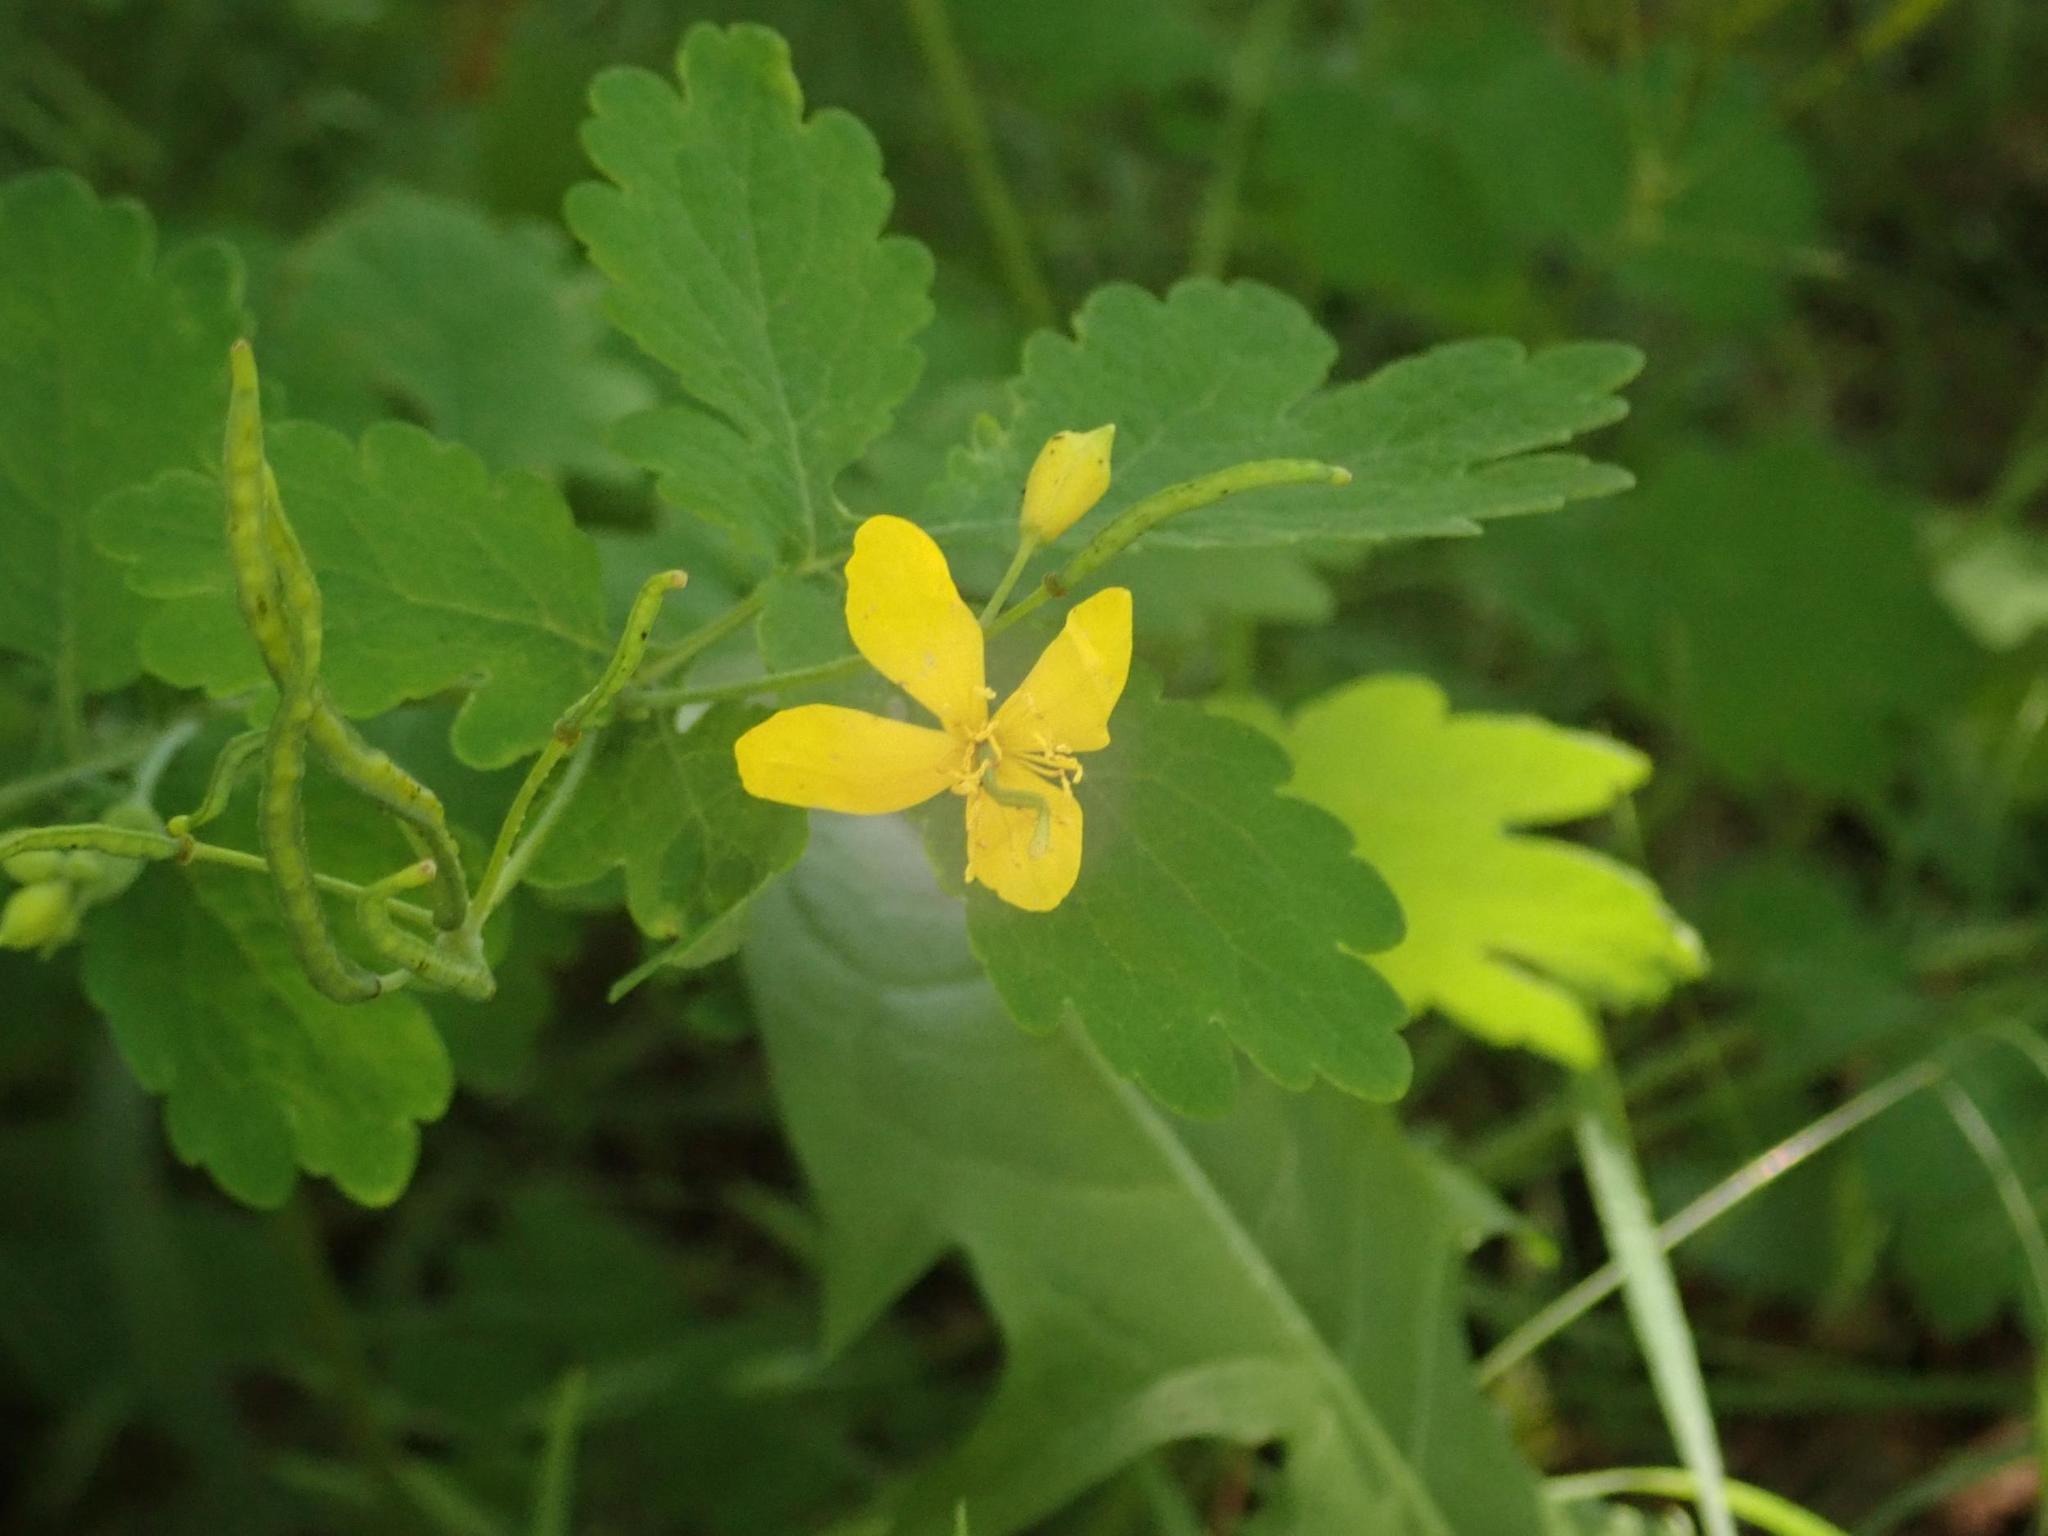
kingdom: Plantae
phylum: Tracheophyta
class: Magnoliopsida
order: Ranunculales
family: Papaveraceae
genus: Chelidonium
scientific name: Chelidonium majus
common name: Greater celandine
